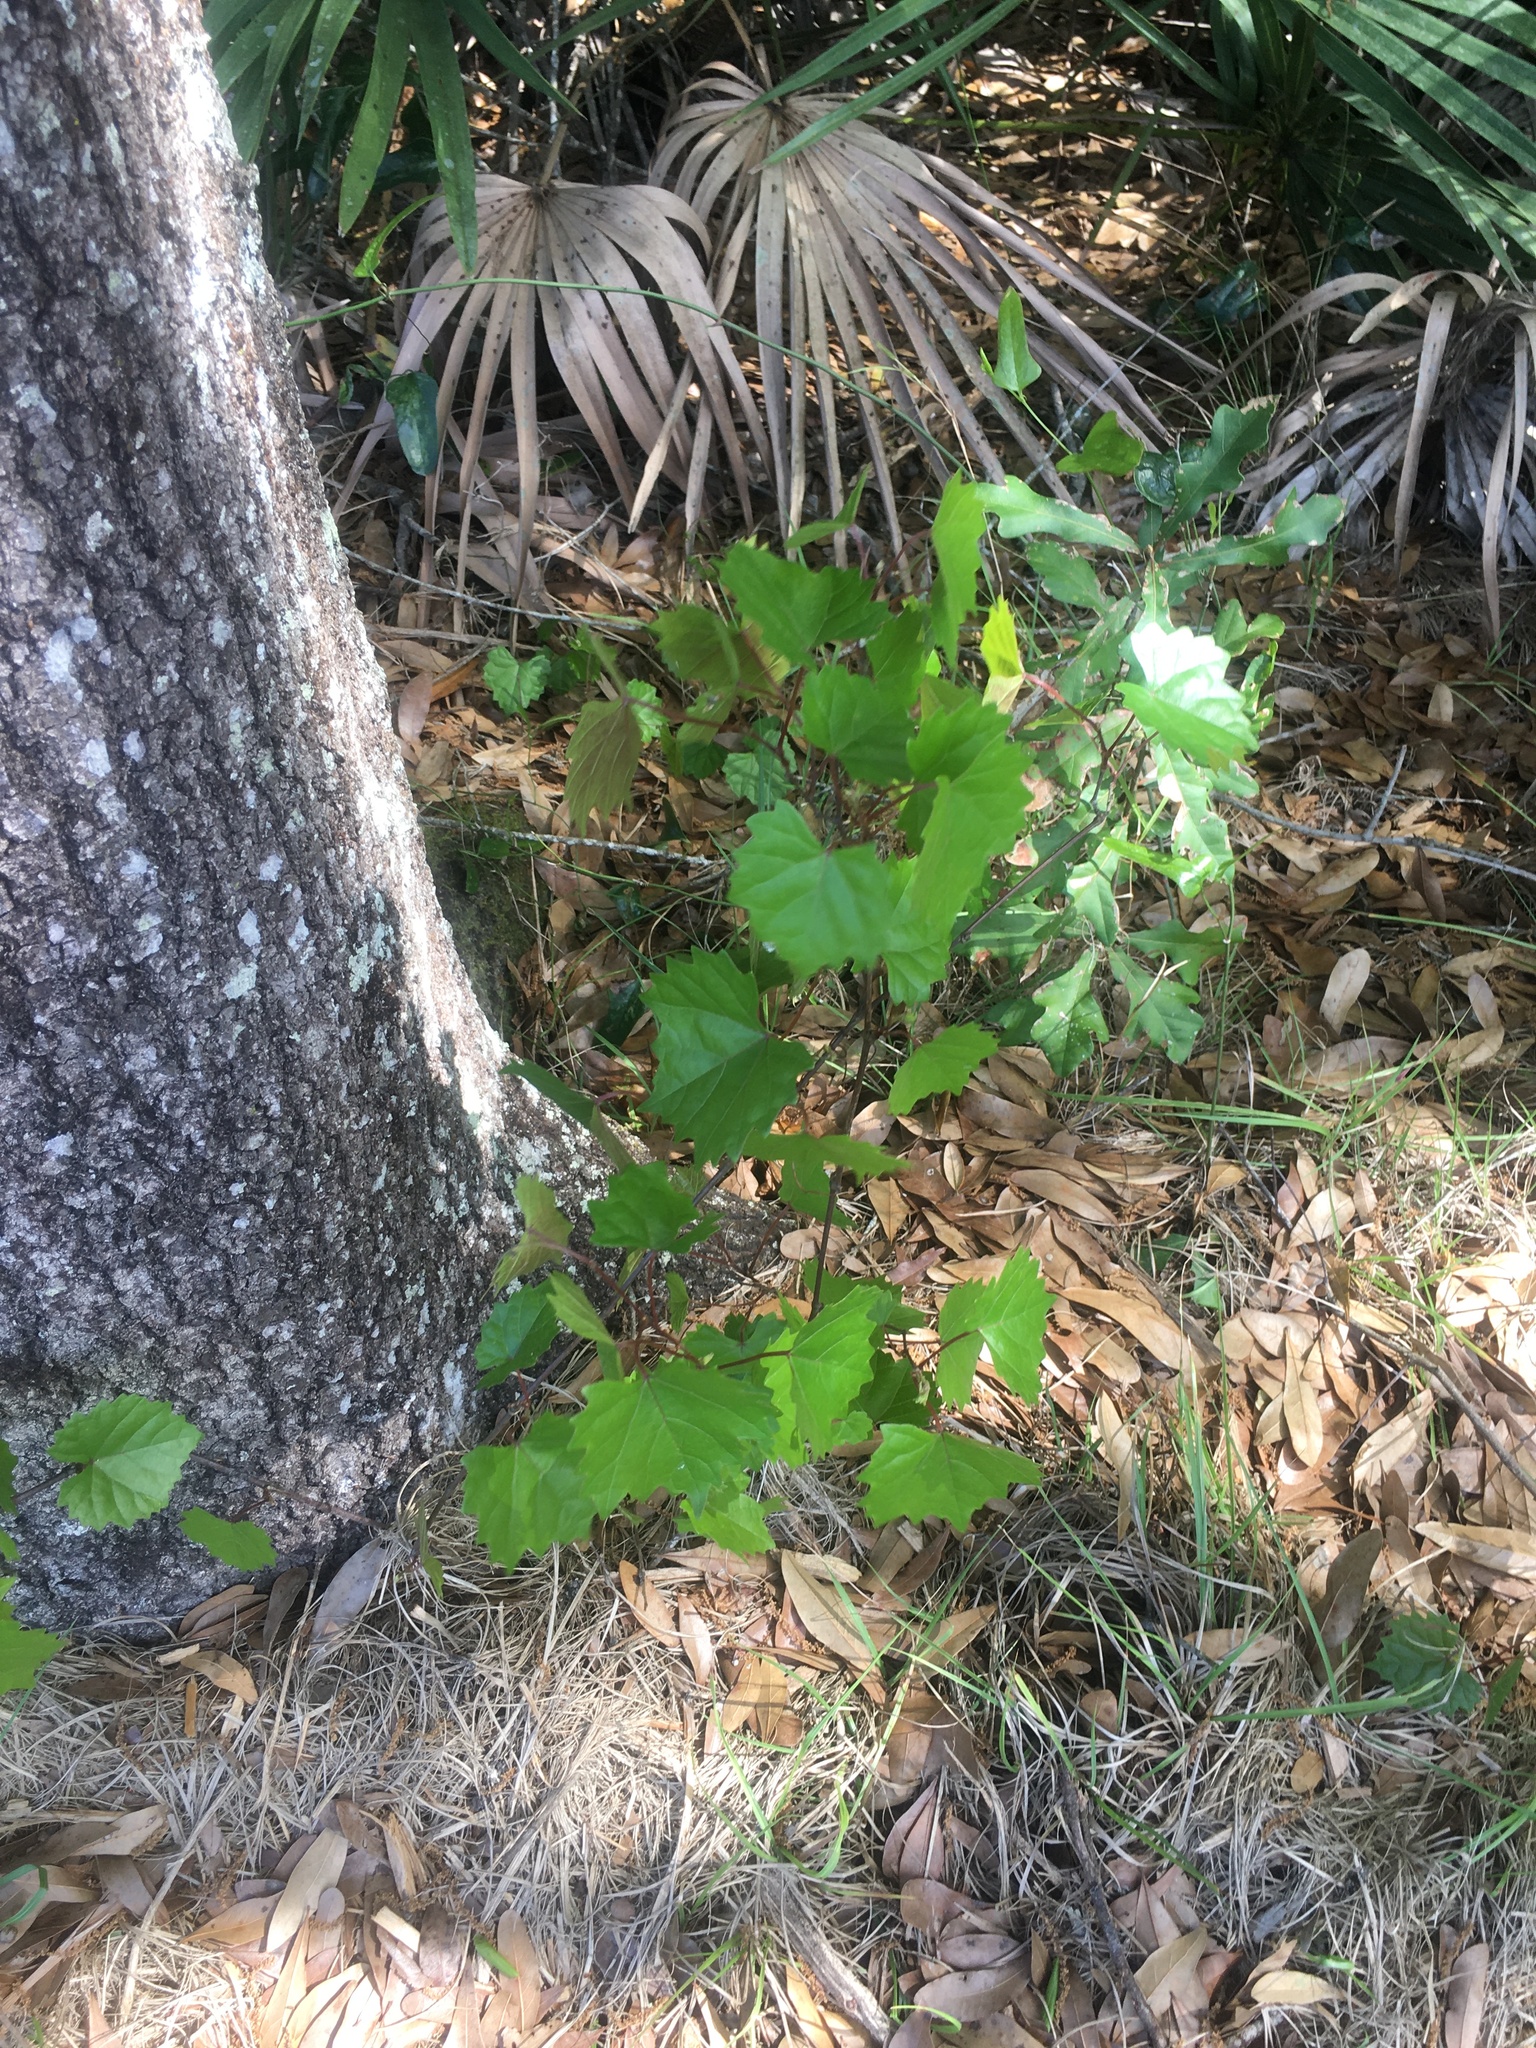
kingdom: Plantae
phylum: Tracheophyta
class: Magnoliopsida
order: Vitales
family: Vitaceae
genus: Vitis
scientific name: Vitis rotundifolia
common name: Muscadine grape
